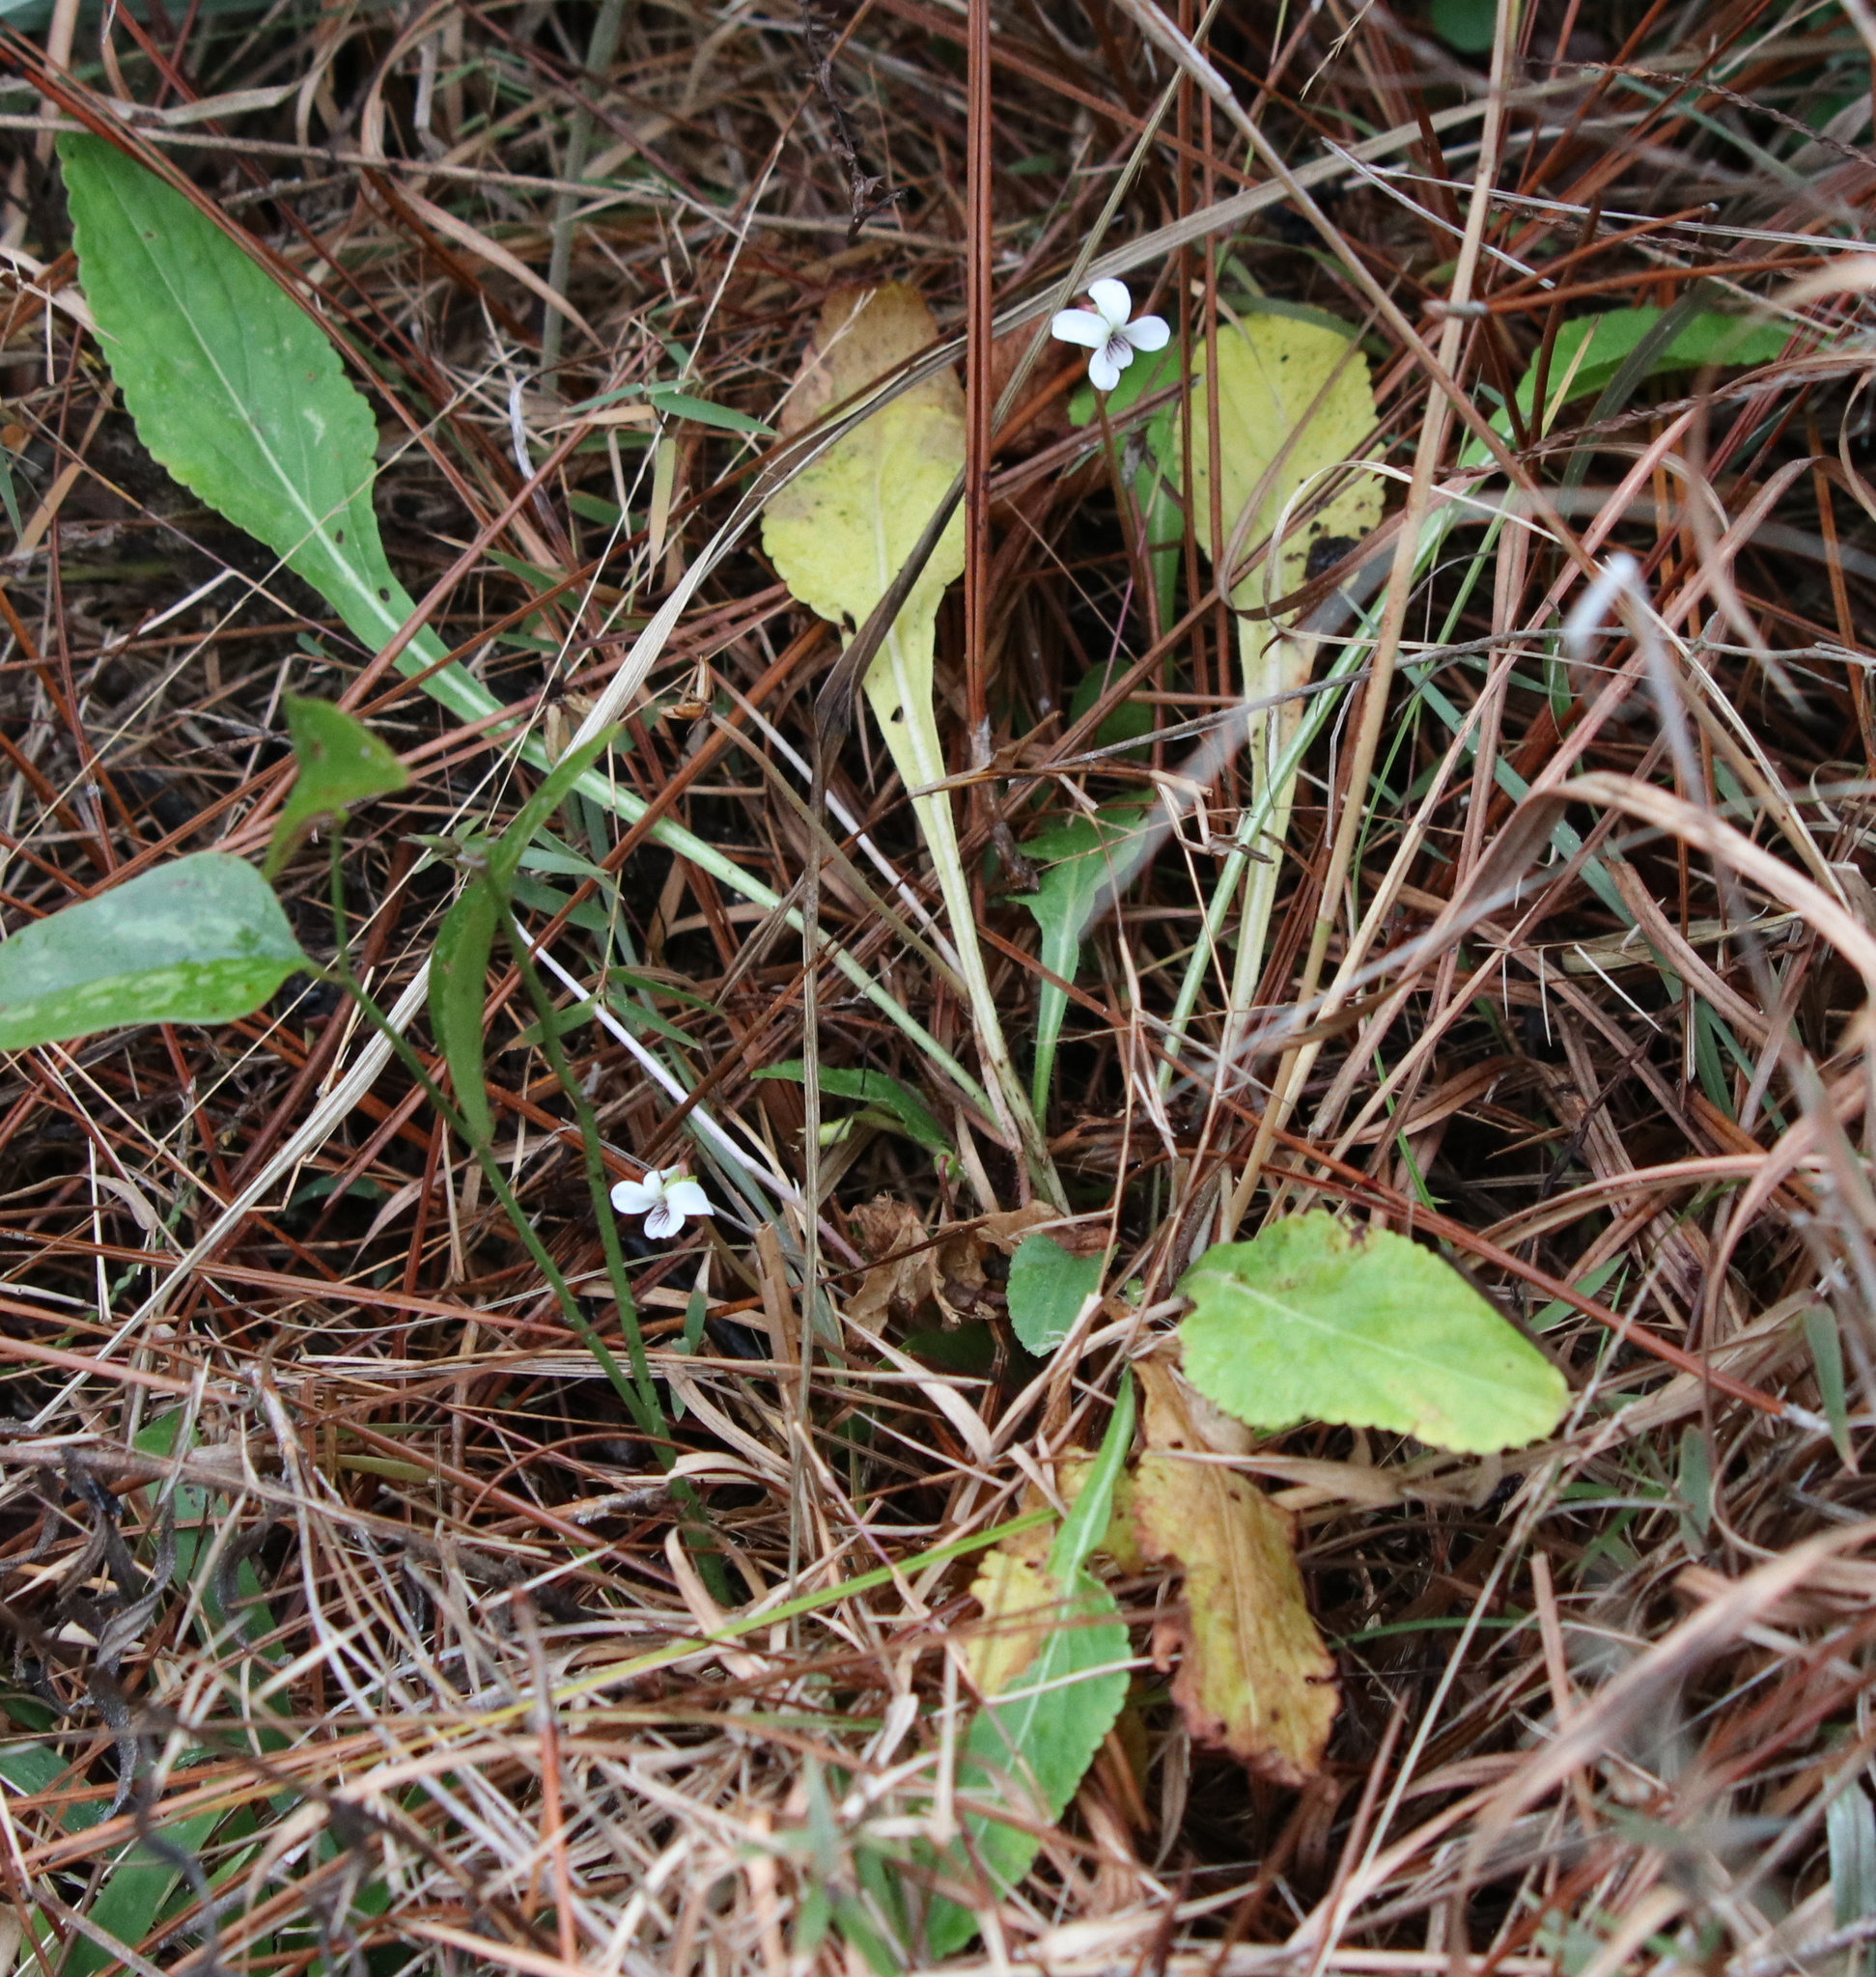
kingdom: Plantae
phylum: Tracheophyta
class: Magnoliopsida
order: Malpighiales
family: Violaceae
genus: Viola
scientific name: Viola primulifolia
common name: Primrose-leaf violet
